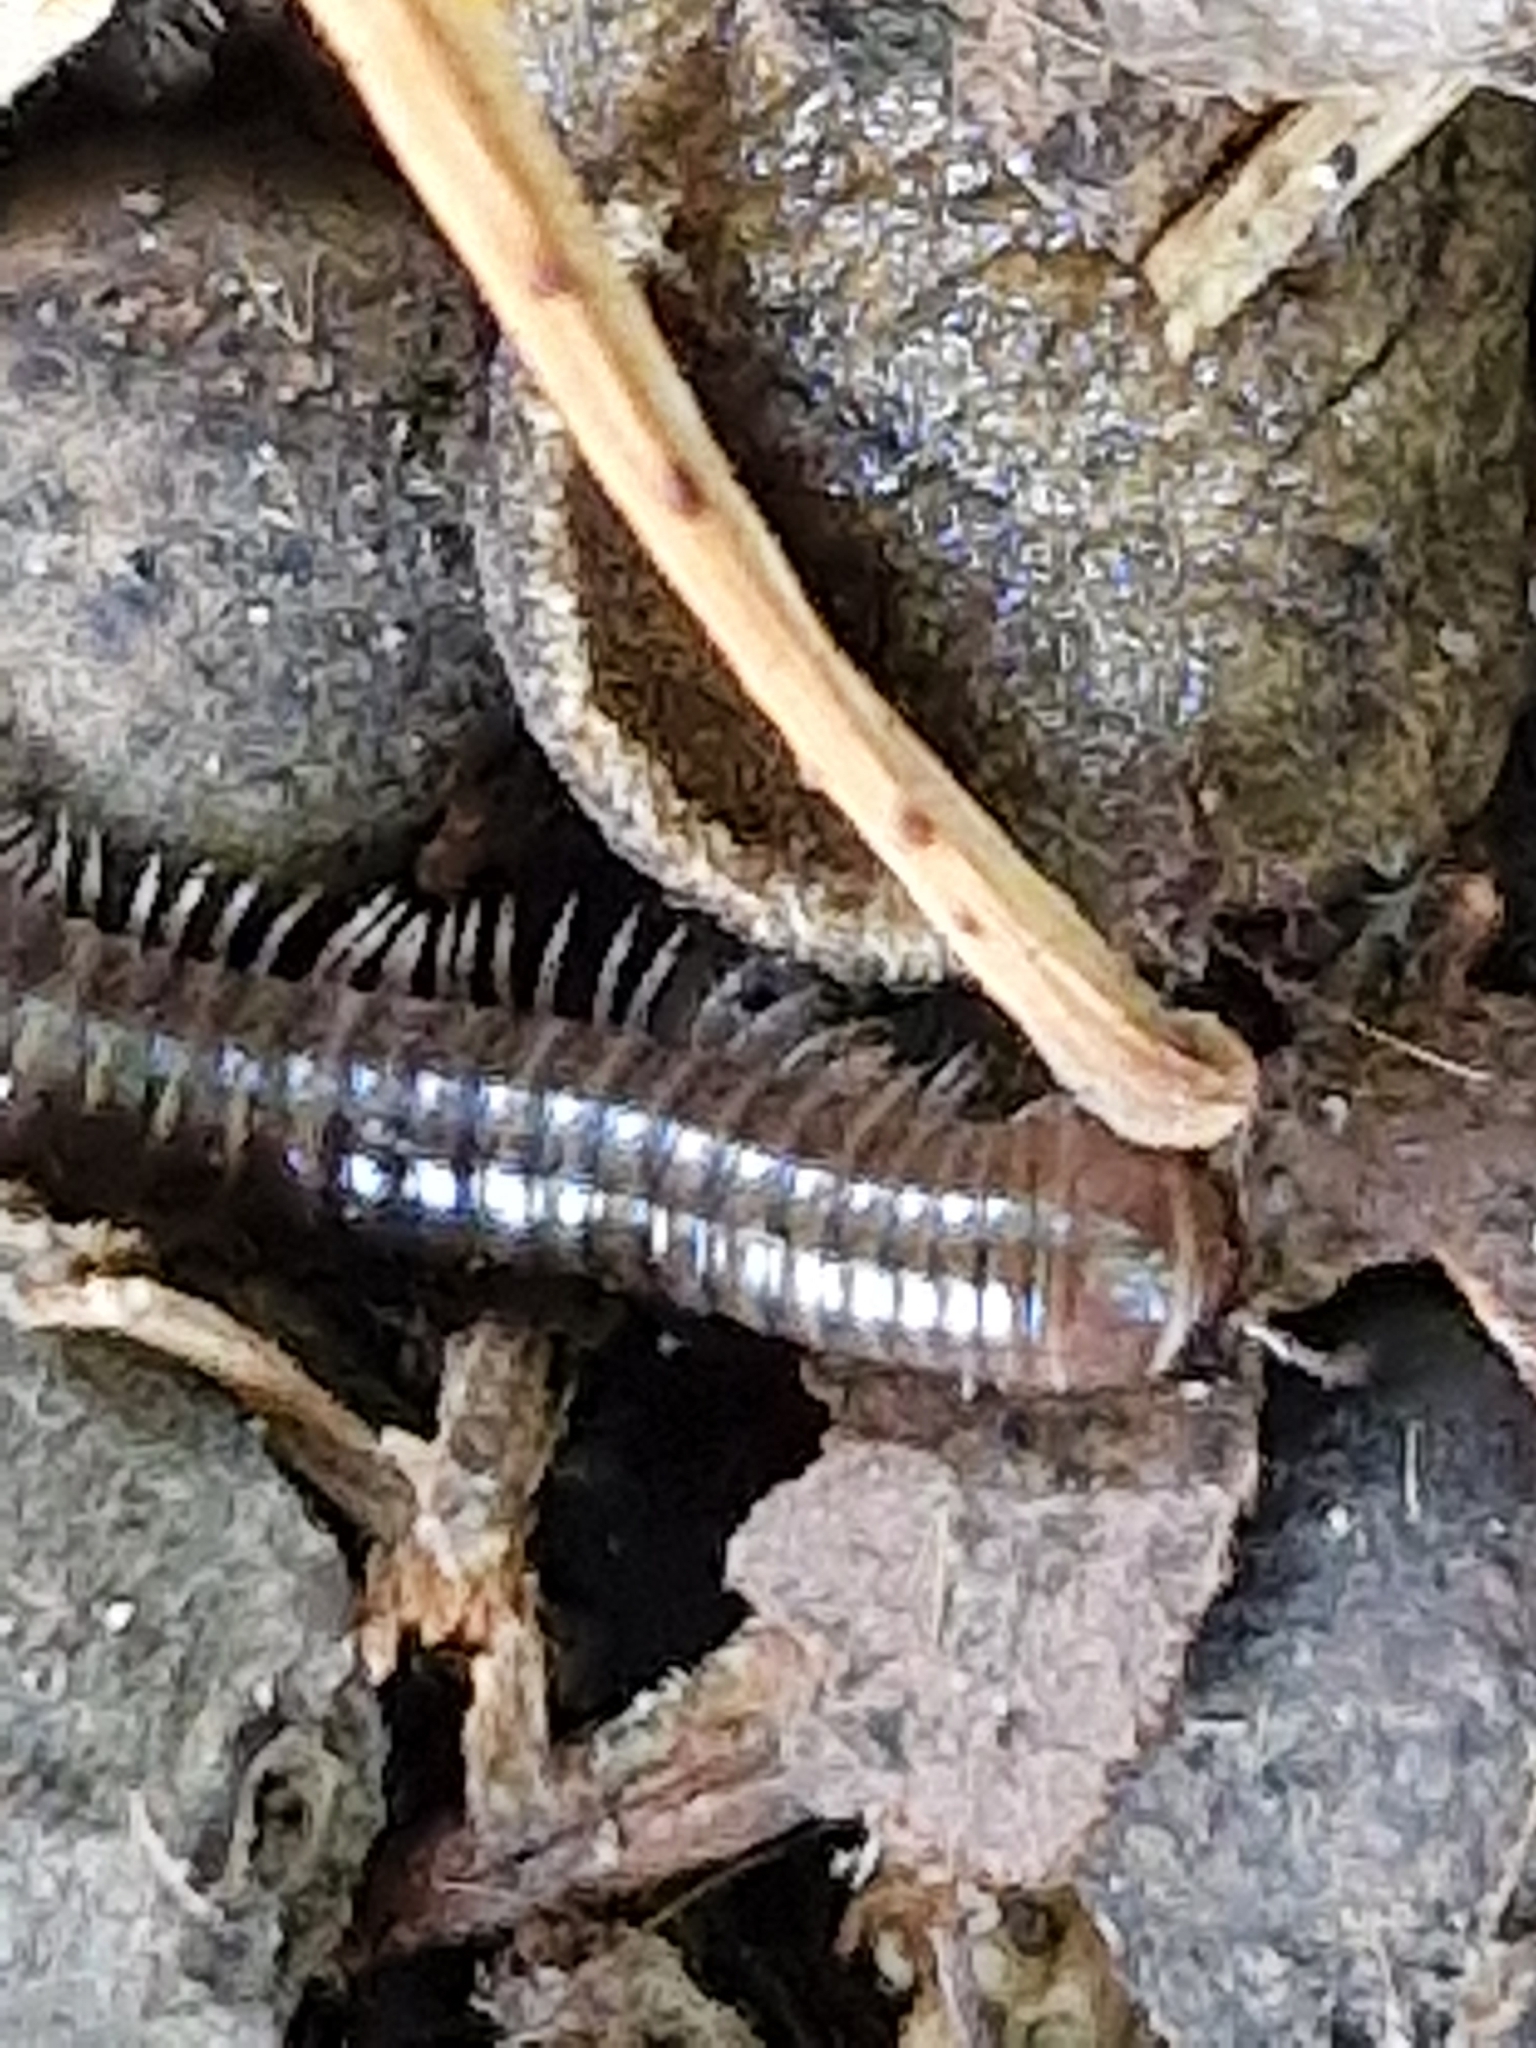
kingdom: Animalia
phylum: Arthropoda
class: Diplopoda
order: Julida
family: Julidae
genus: Cylindroiulus
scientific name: Cylindroiulus caeruleocinctus
